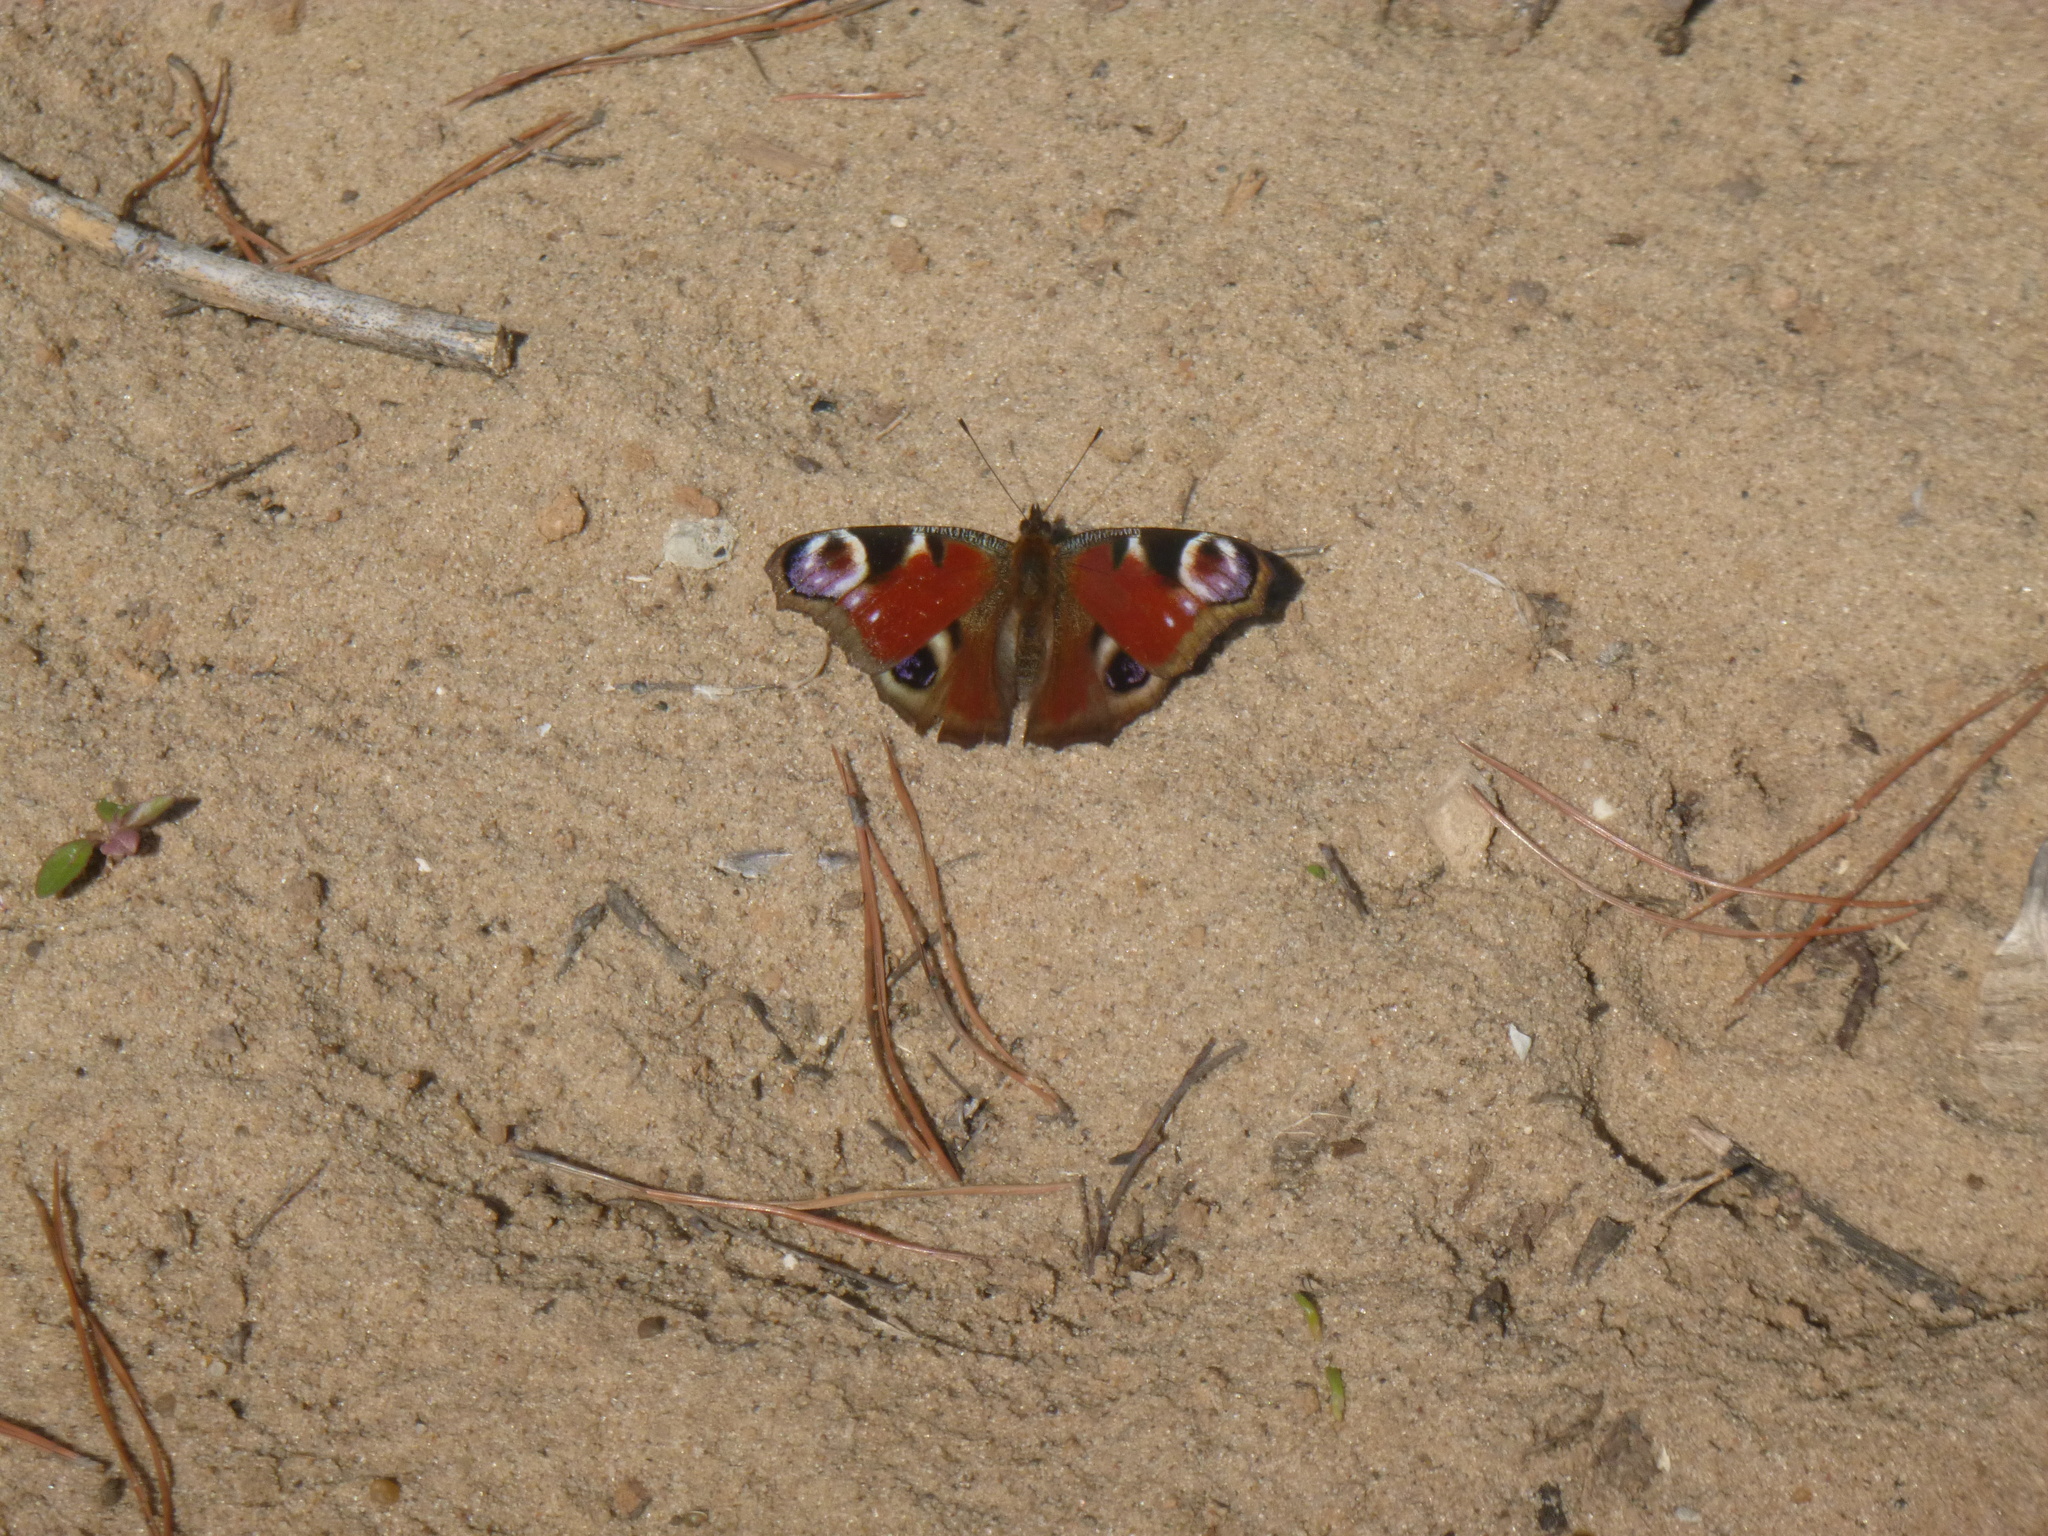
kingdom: Animalia
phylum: Arthropoda
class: Insecta
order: Lepidoptera
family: Nymphalidae
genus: Aglais
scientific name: Aglais io
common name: Peacock
